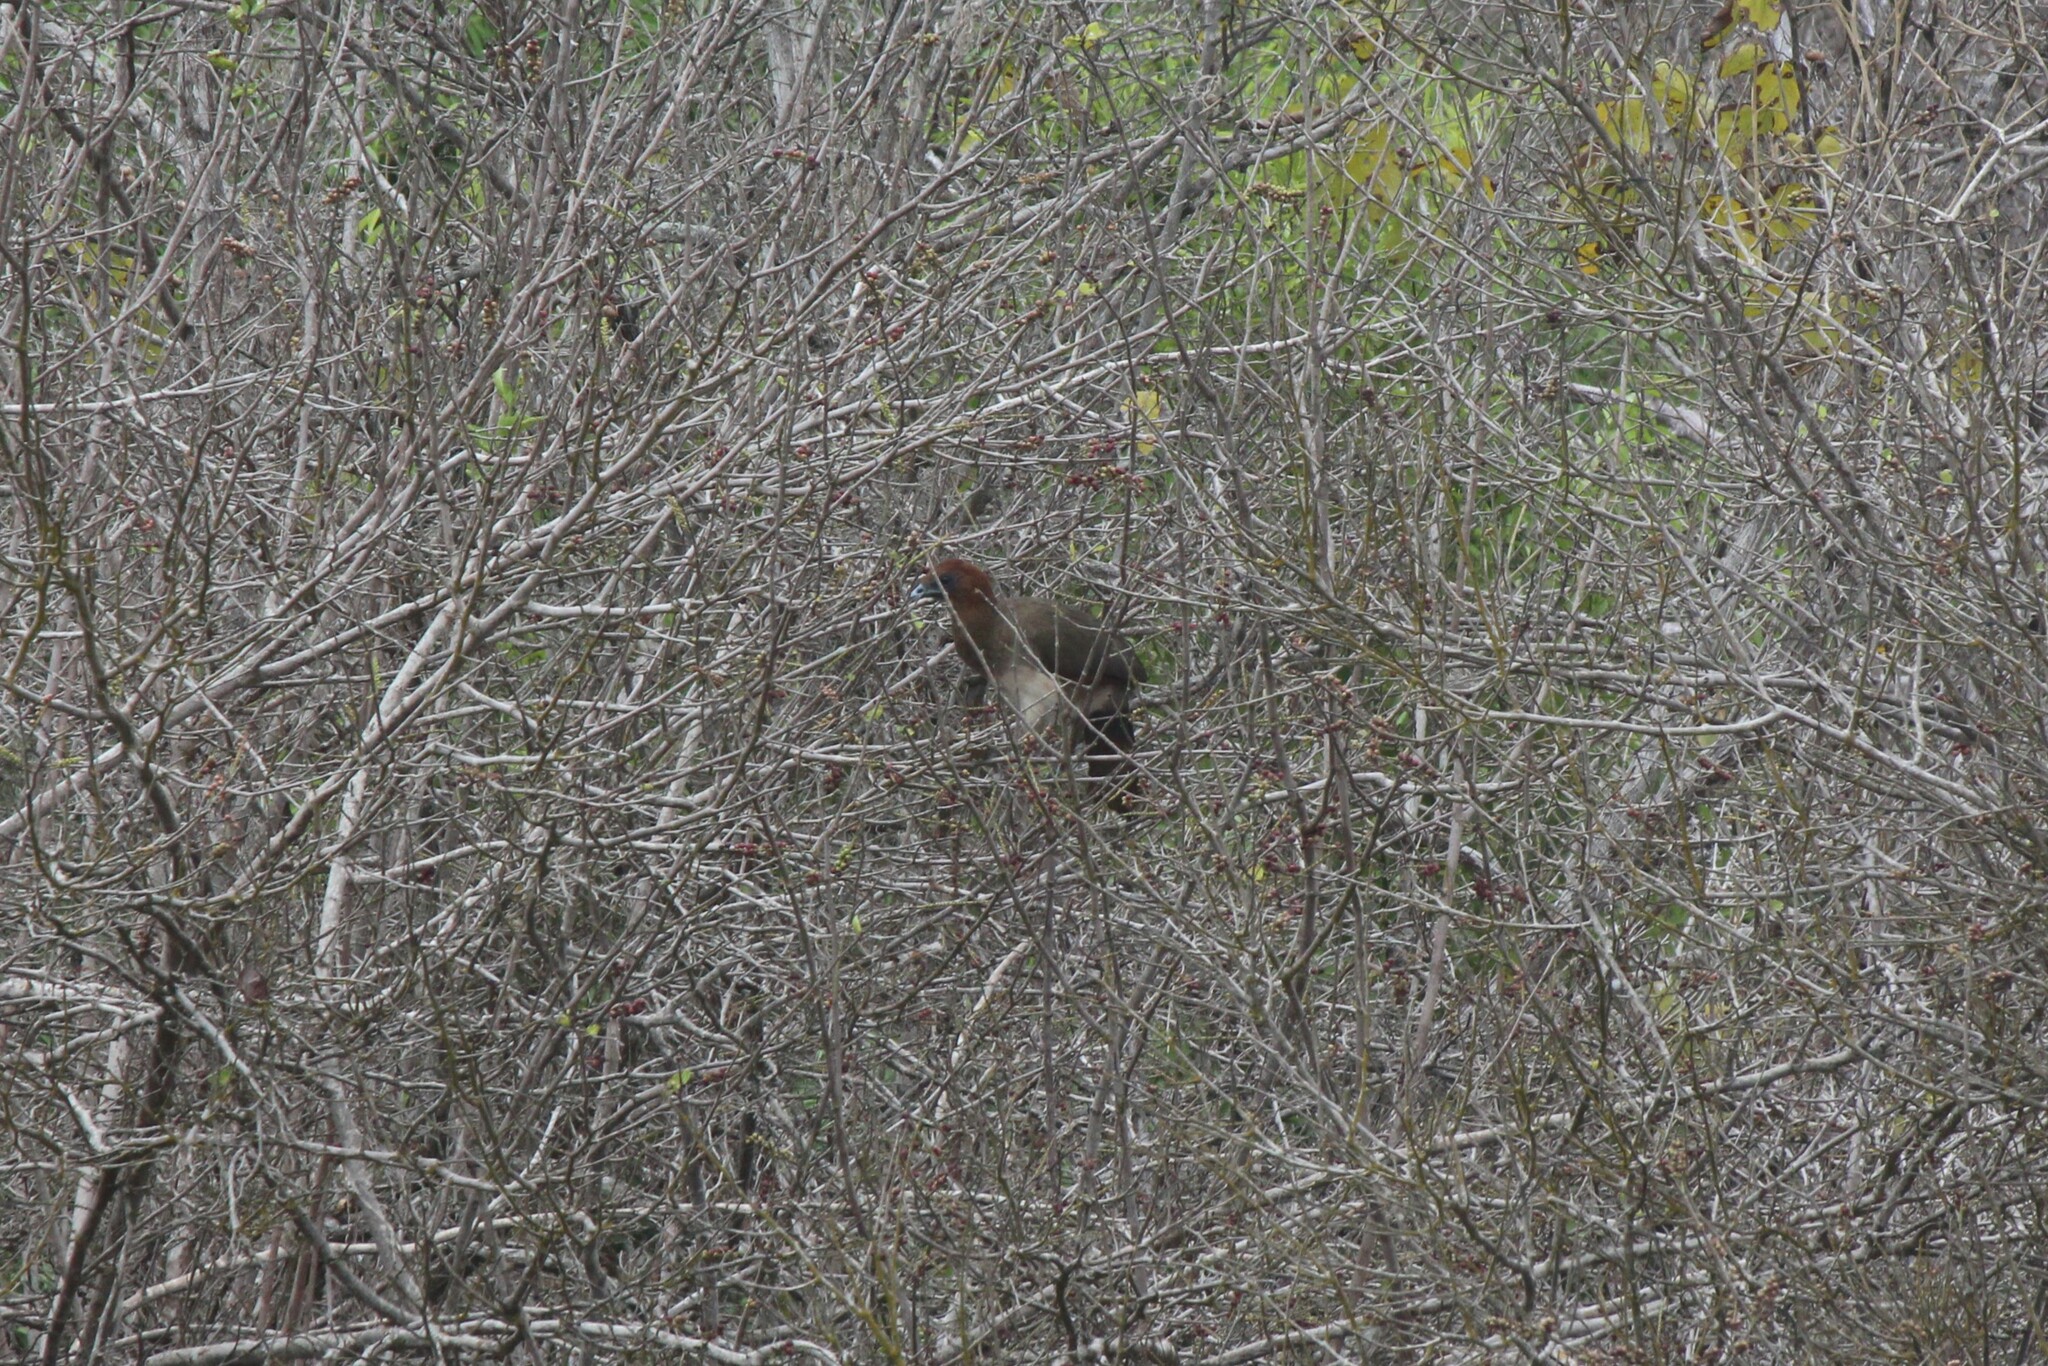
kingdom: Animalia
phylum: Chordata
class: Aves
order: Galliformes
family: Cracidae
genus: Ortalis
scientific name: Ortalis erythroptera
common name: Rufous-headed chachalaca
